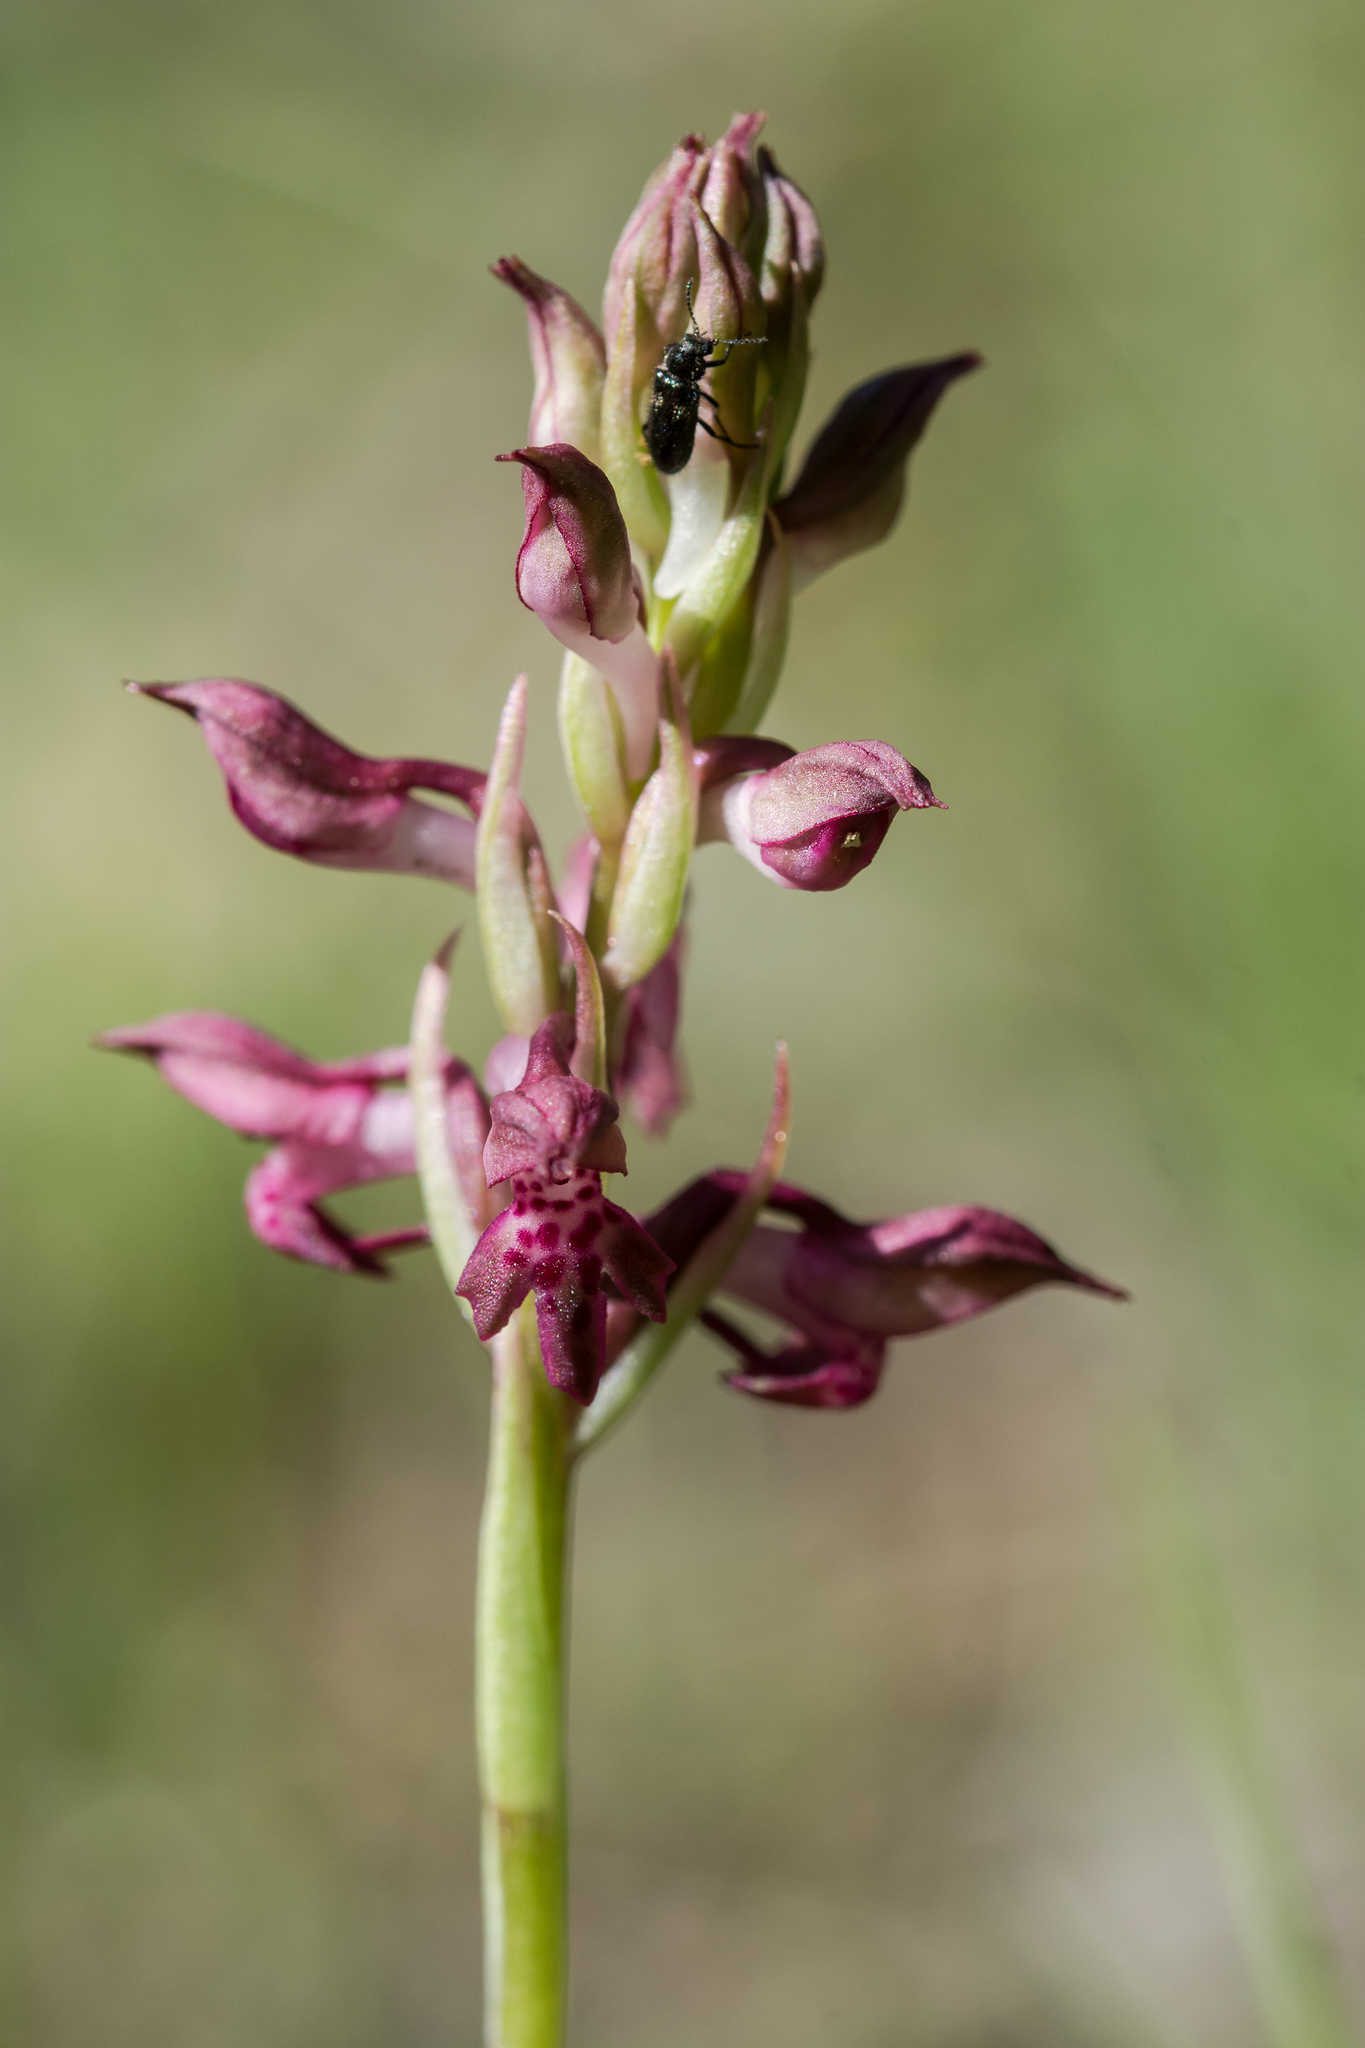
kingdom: Plantae
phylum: Tracheophyta
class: Liliopsida
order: Asparagales
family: Orchidaceae
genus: Anacamptis
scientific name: Anacamptis coriophora
